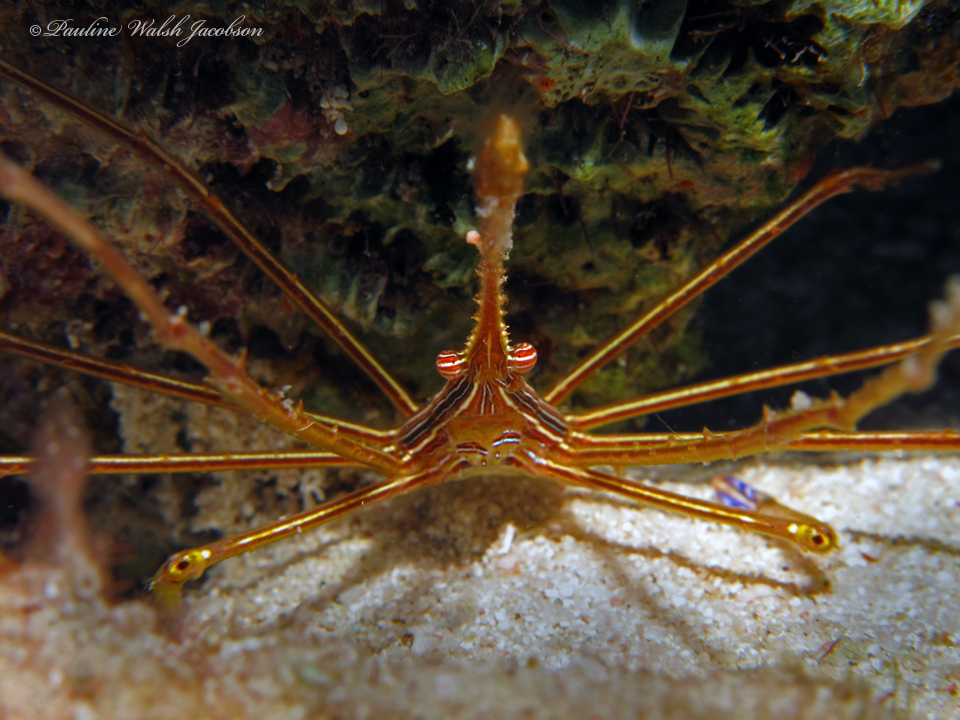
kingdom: Animalia
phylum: Arthropoda
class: Malacostraca
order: Decapoda
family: Inachoididae
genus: Stenorhynchus
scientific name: Stenorhynchus seticornis
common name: Arrow crab
